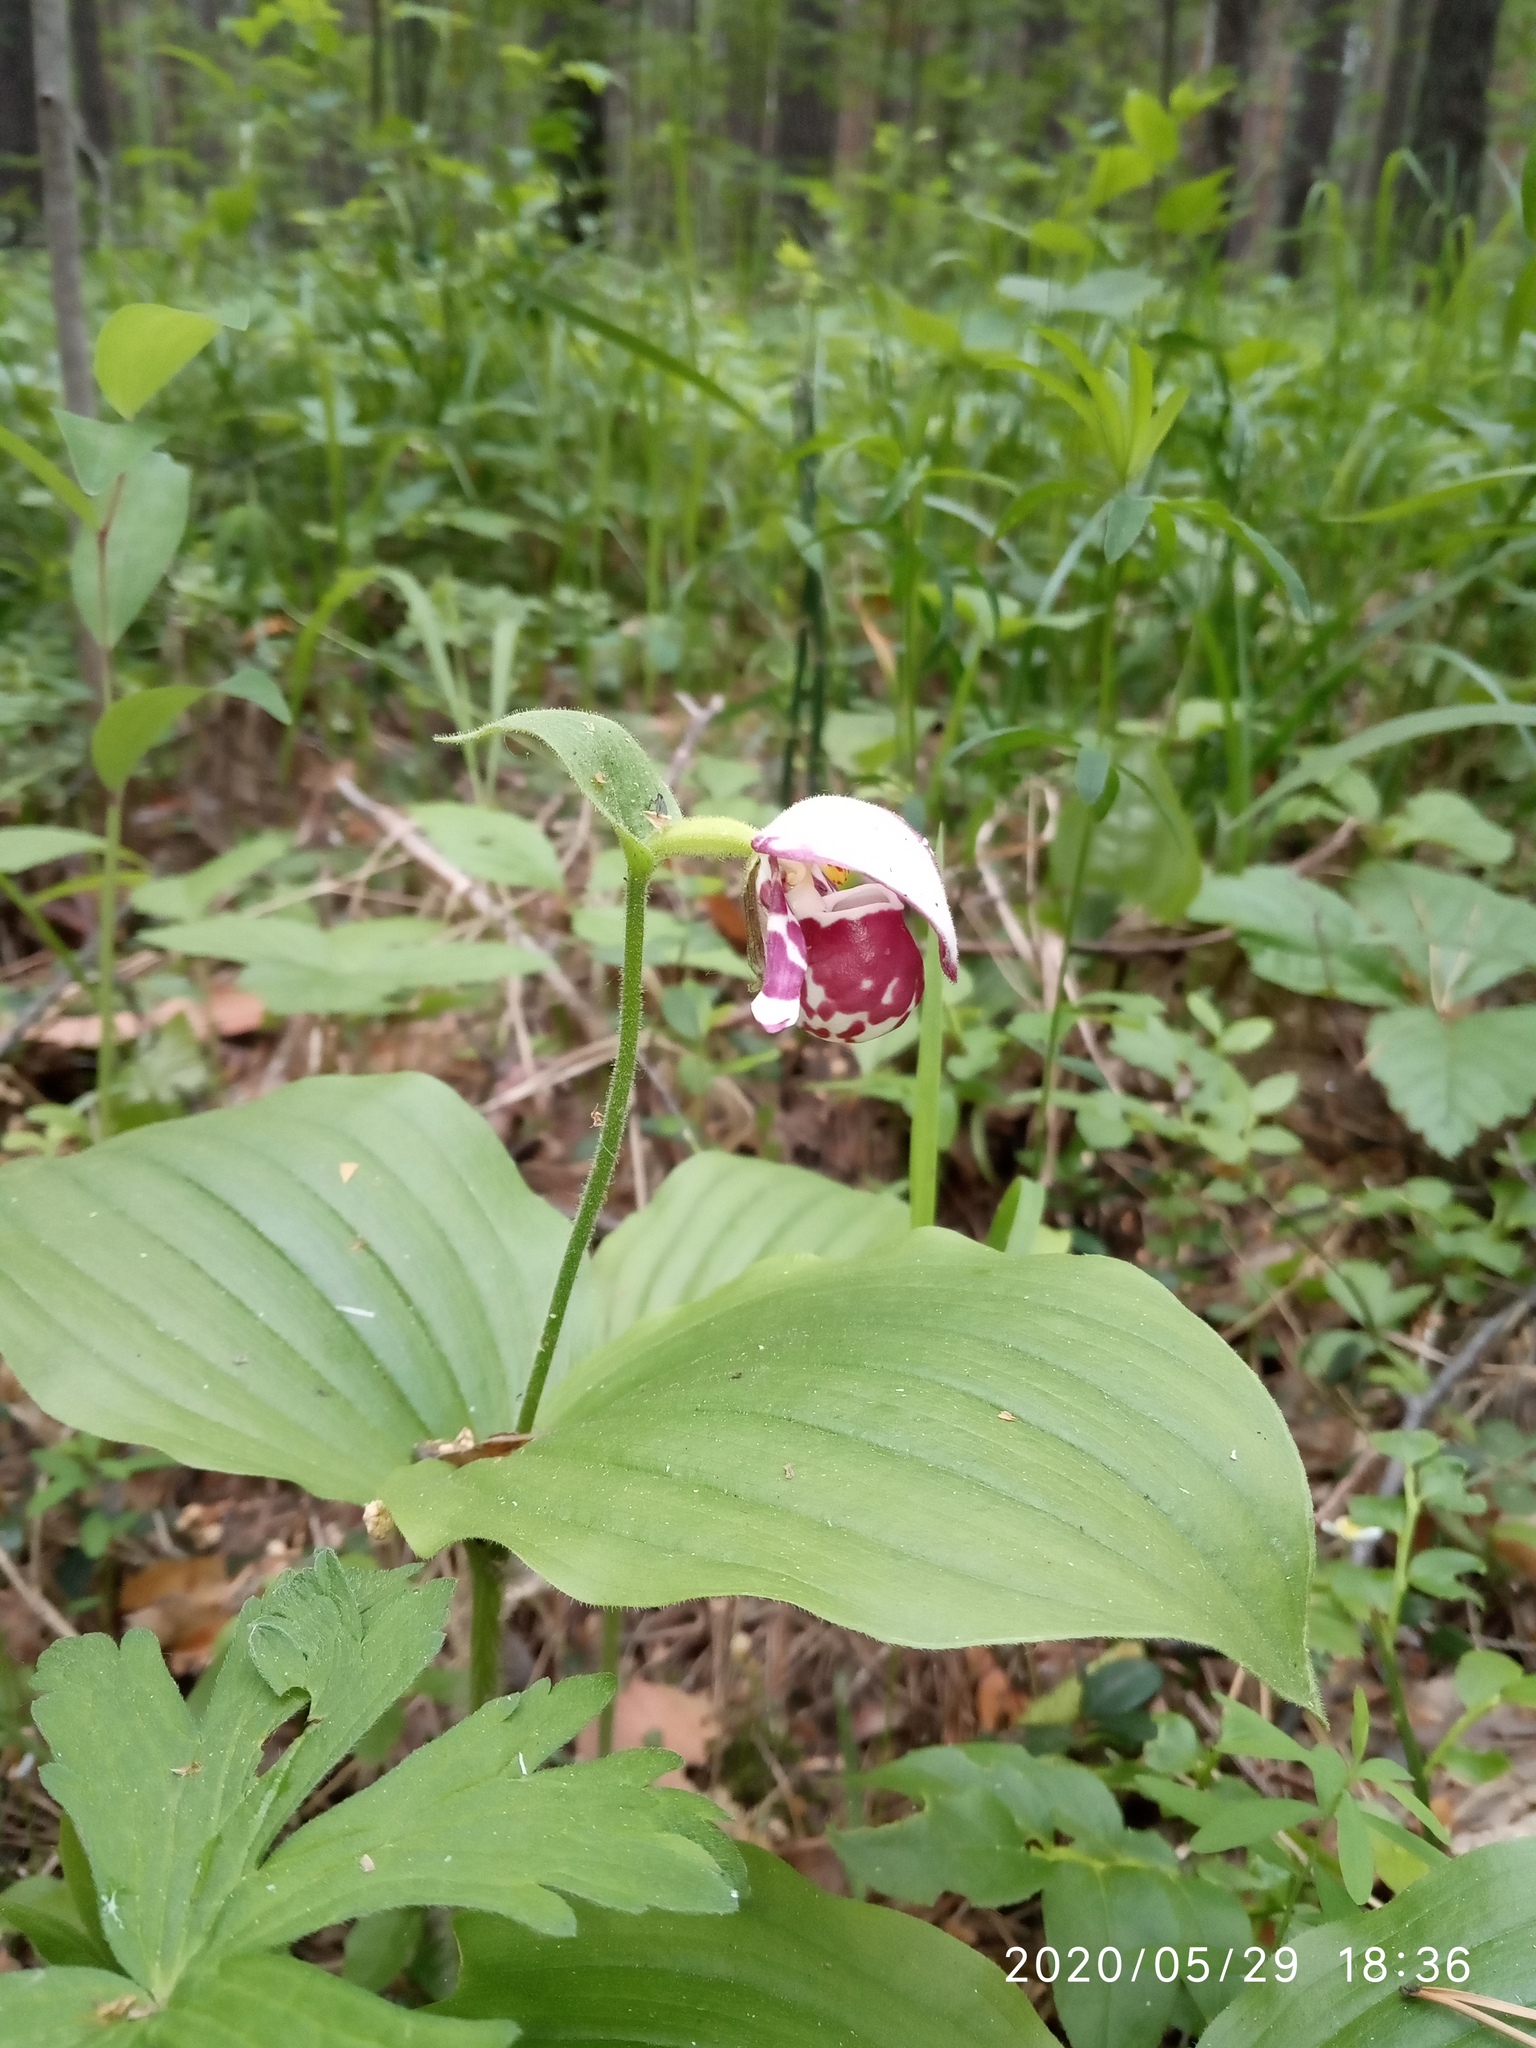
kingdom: Plantae
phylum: Tracheophyta
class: Liliopsida
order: Asparagales
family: Orchidaceae
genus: Cypripedium
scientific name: Cypripedium guttatum
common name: Pink lady slipper
